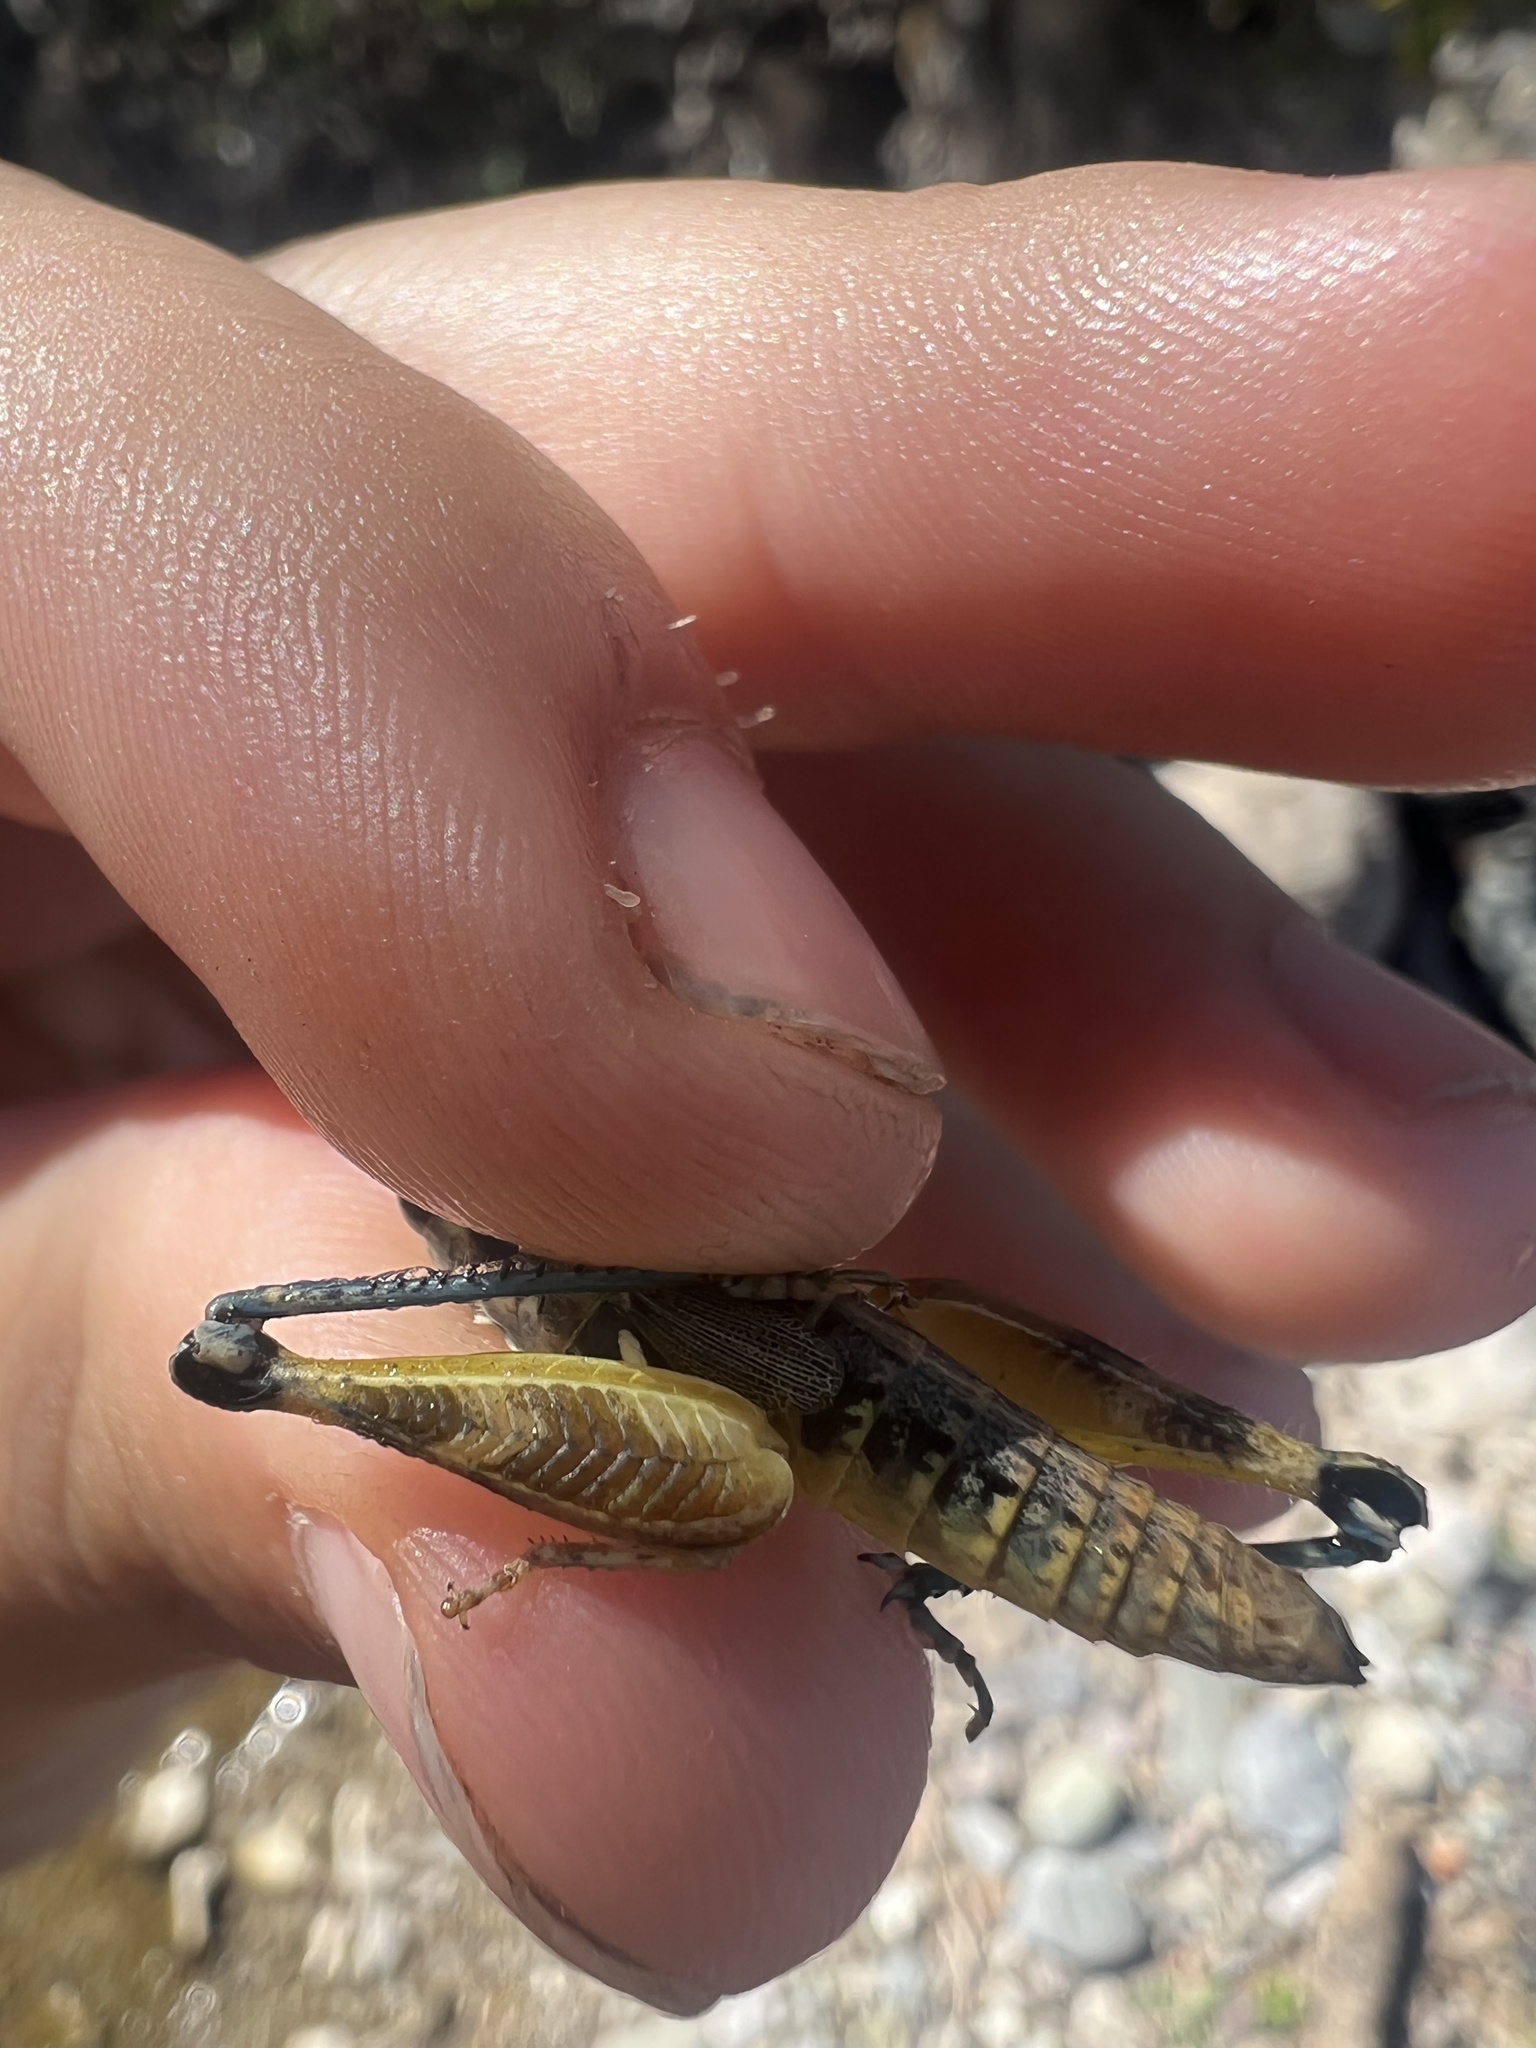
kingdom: Animalia
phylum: Arthropoda
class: Insecta
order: Orthoptera
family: Acrididae
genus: Melanoplus
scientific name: Melanoplus aridus
